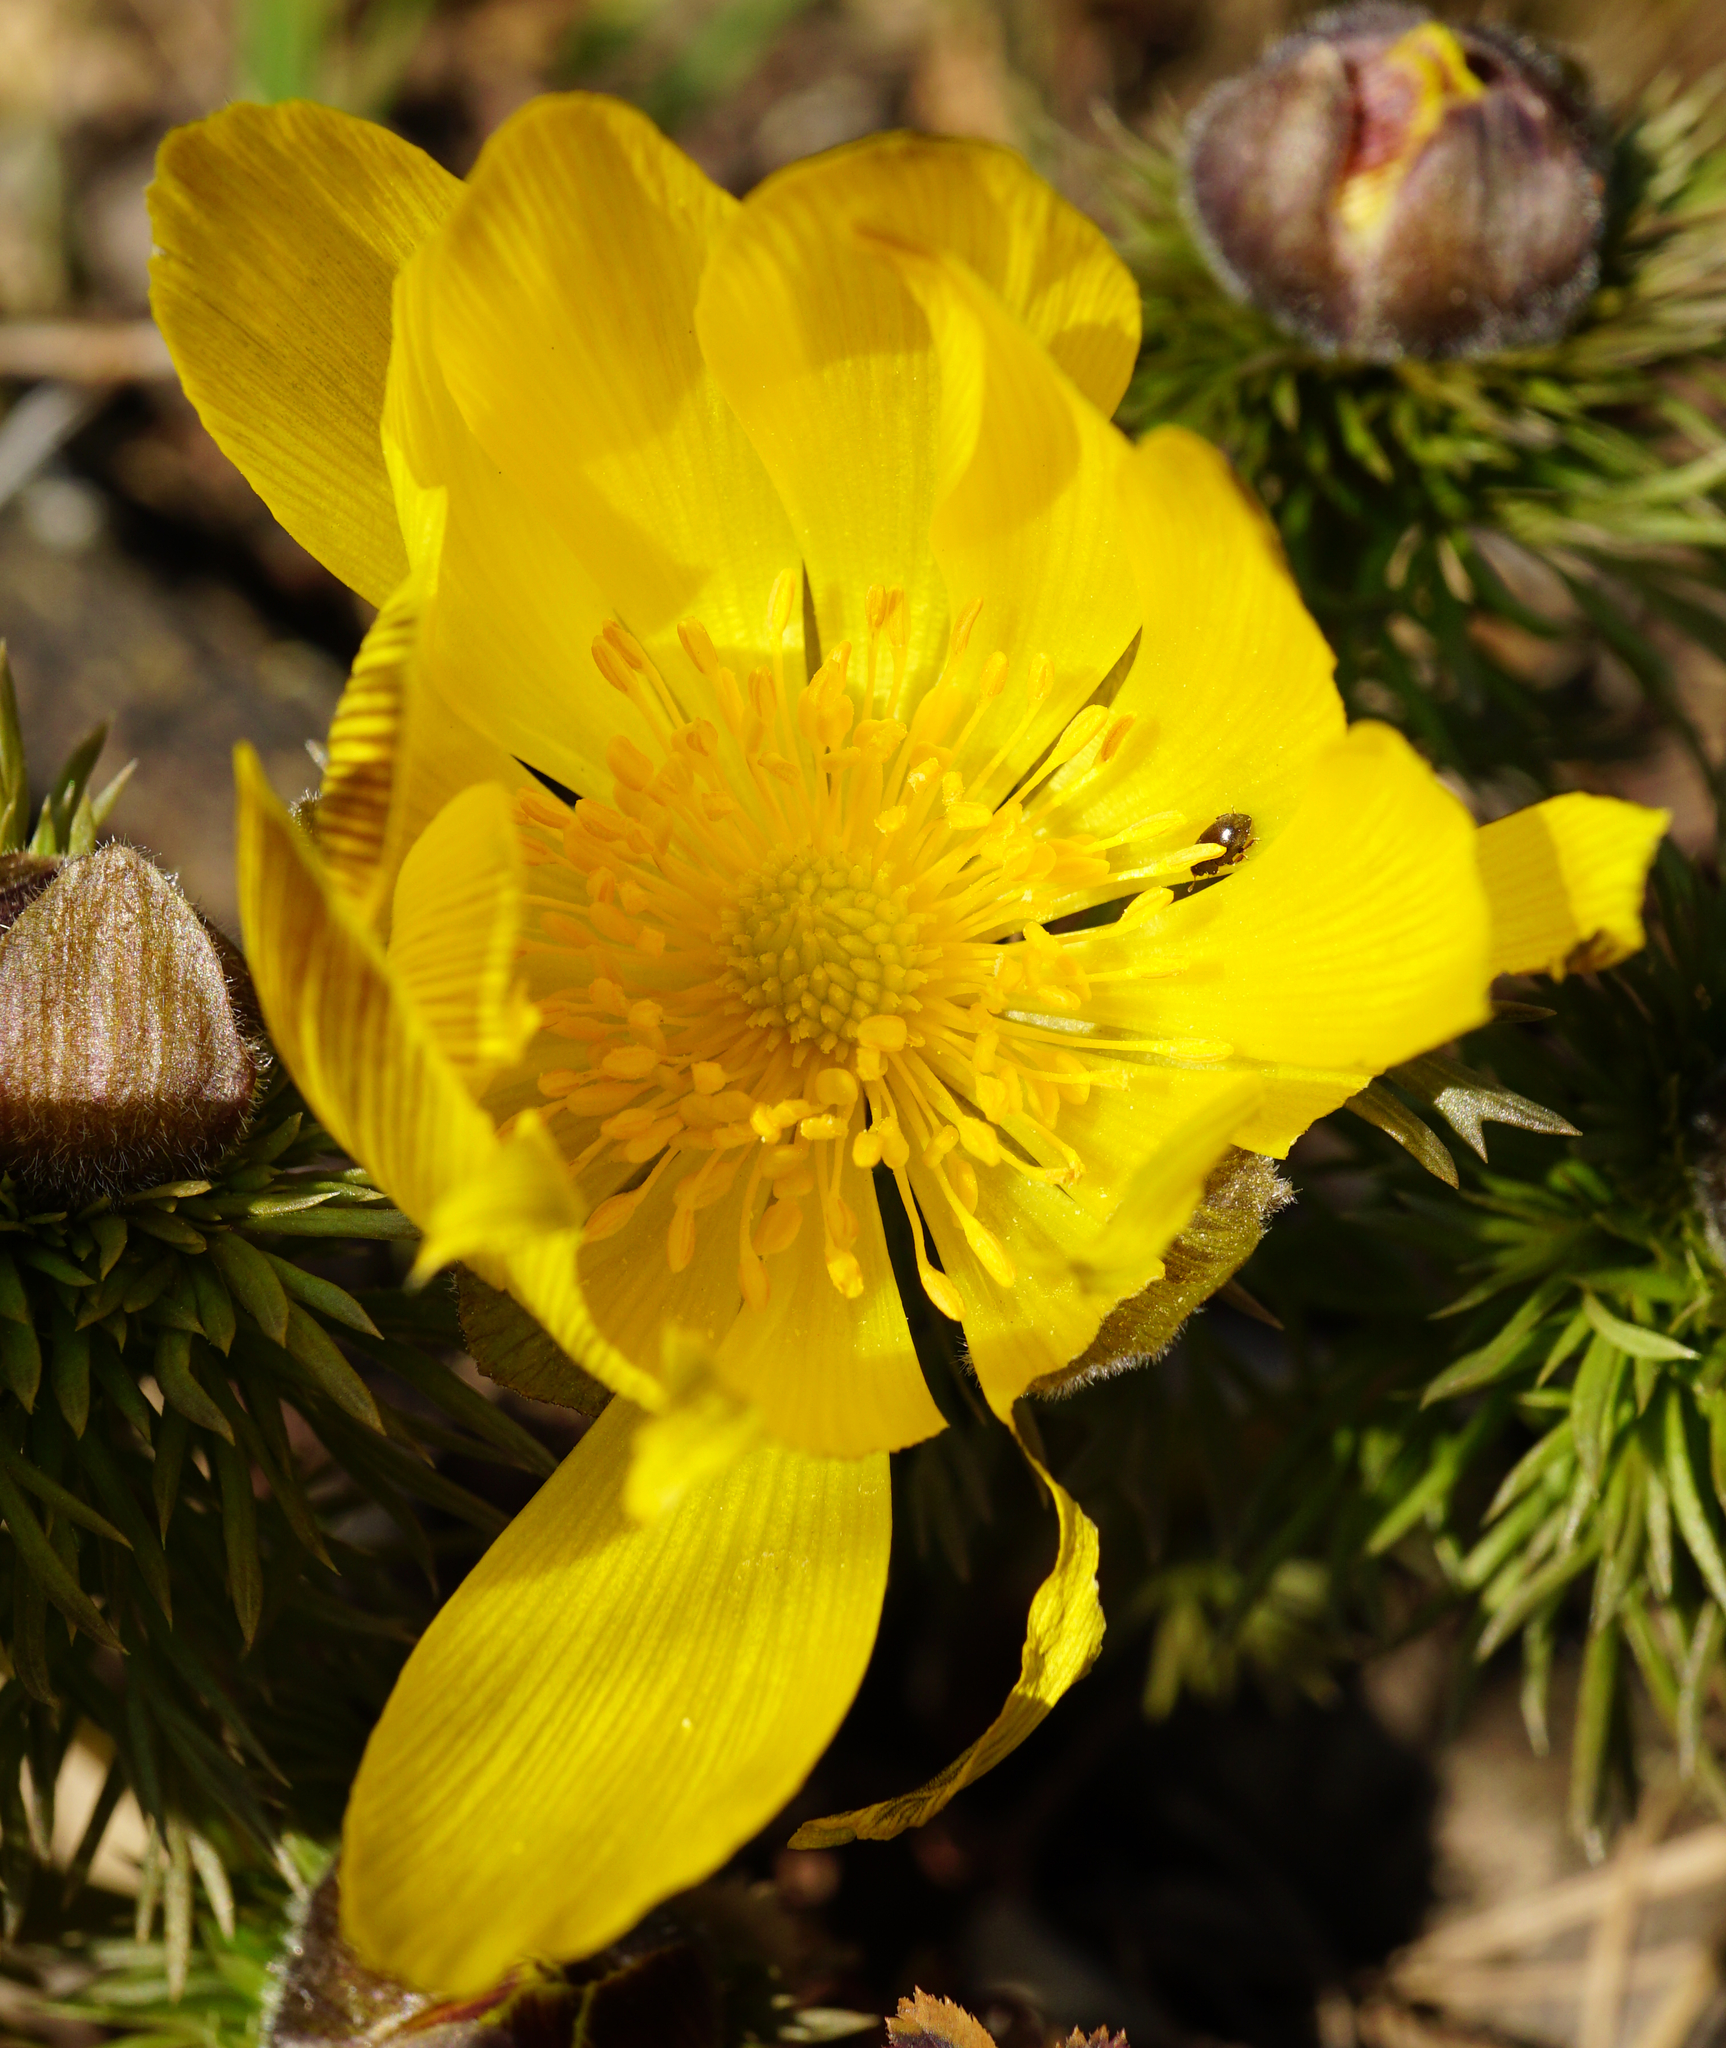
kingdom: Plantae
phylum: Tracheophyta
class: Magnoliopsida
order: Ranunculales
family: Ranunculaceae
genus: Adonis
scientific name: Adonis vernalis
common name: Yellow pheasants-eye
